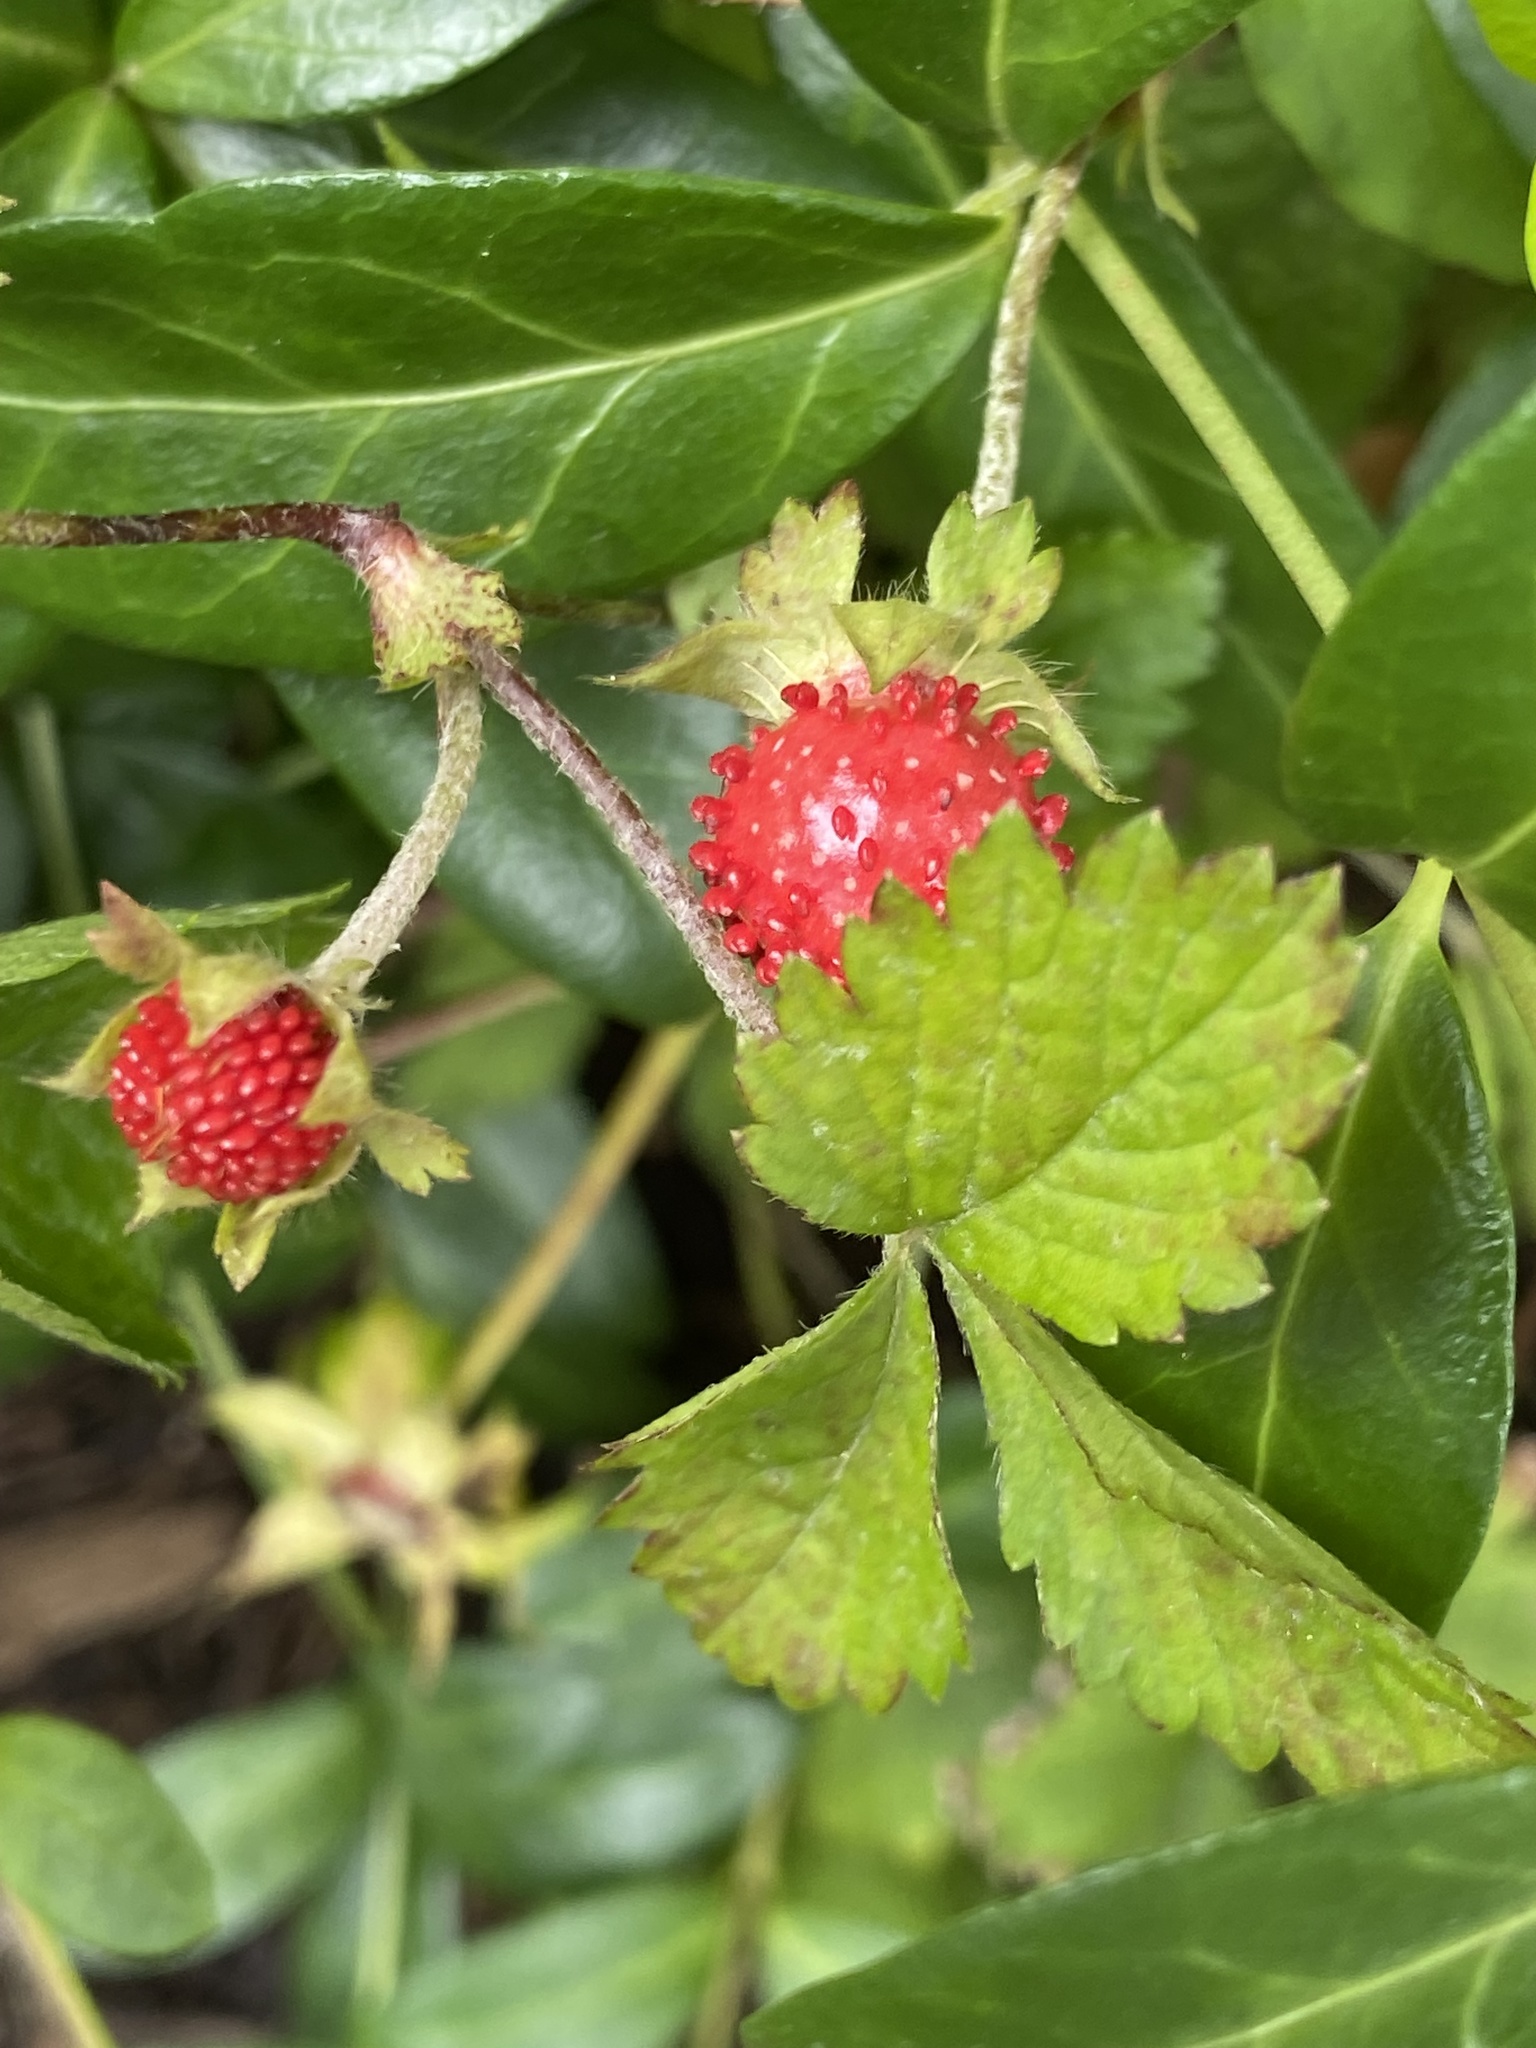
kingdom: Plantae
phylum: Tracheophyta
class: Magnoliopsida
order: Rosales
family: Rosaceae
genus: Potentilla
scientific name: Potentilla indica
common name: Yellow-flowered strawberry
